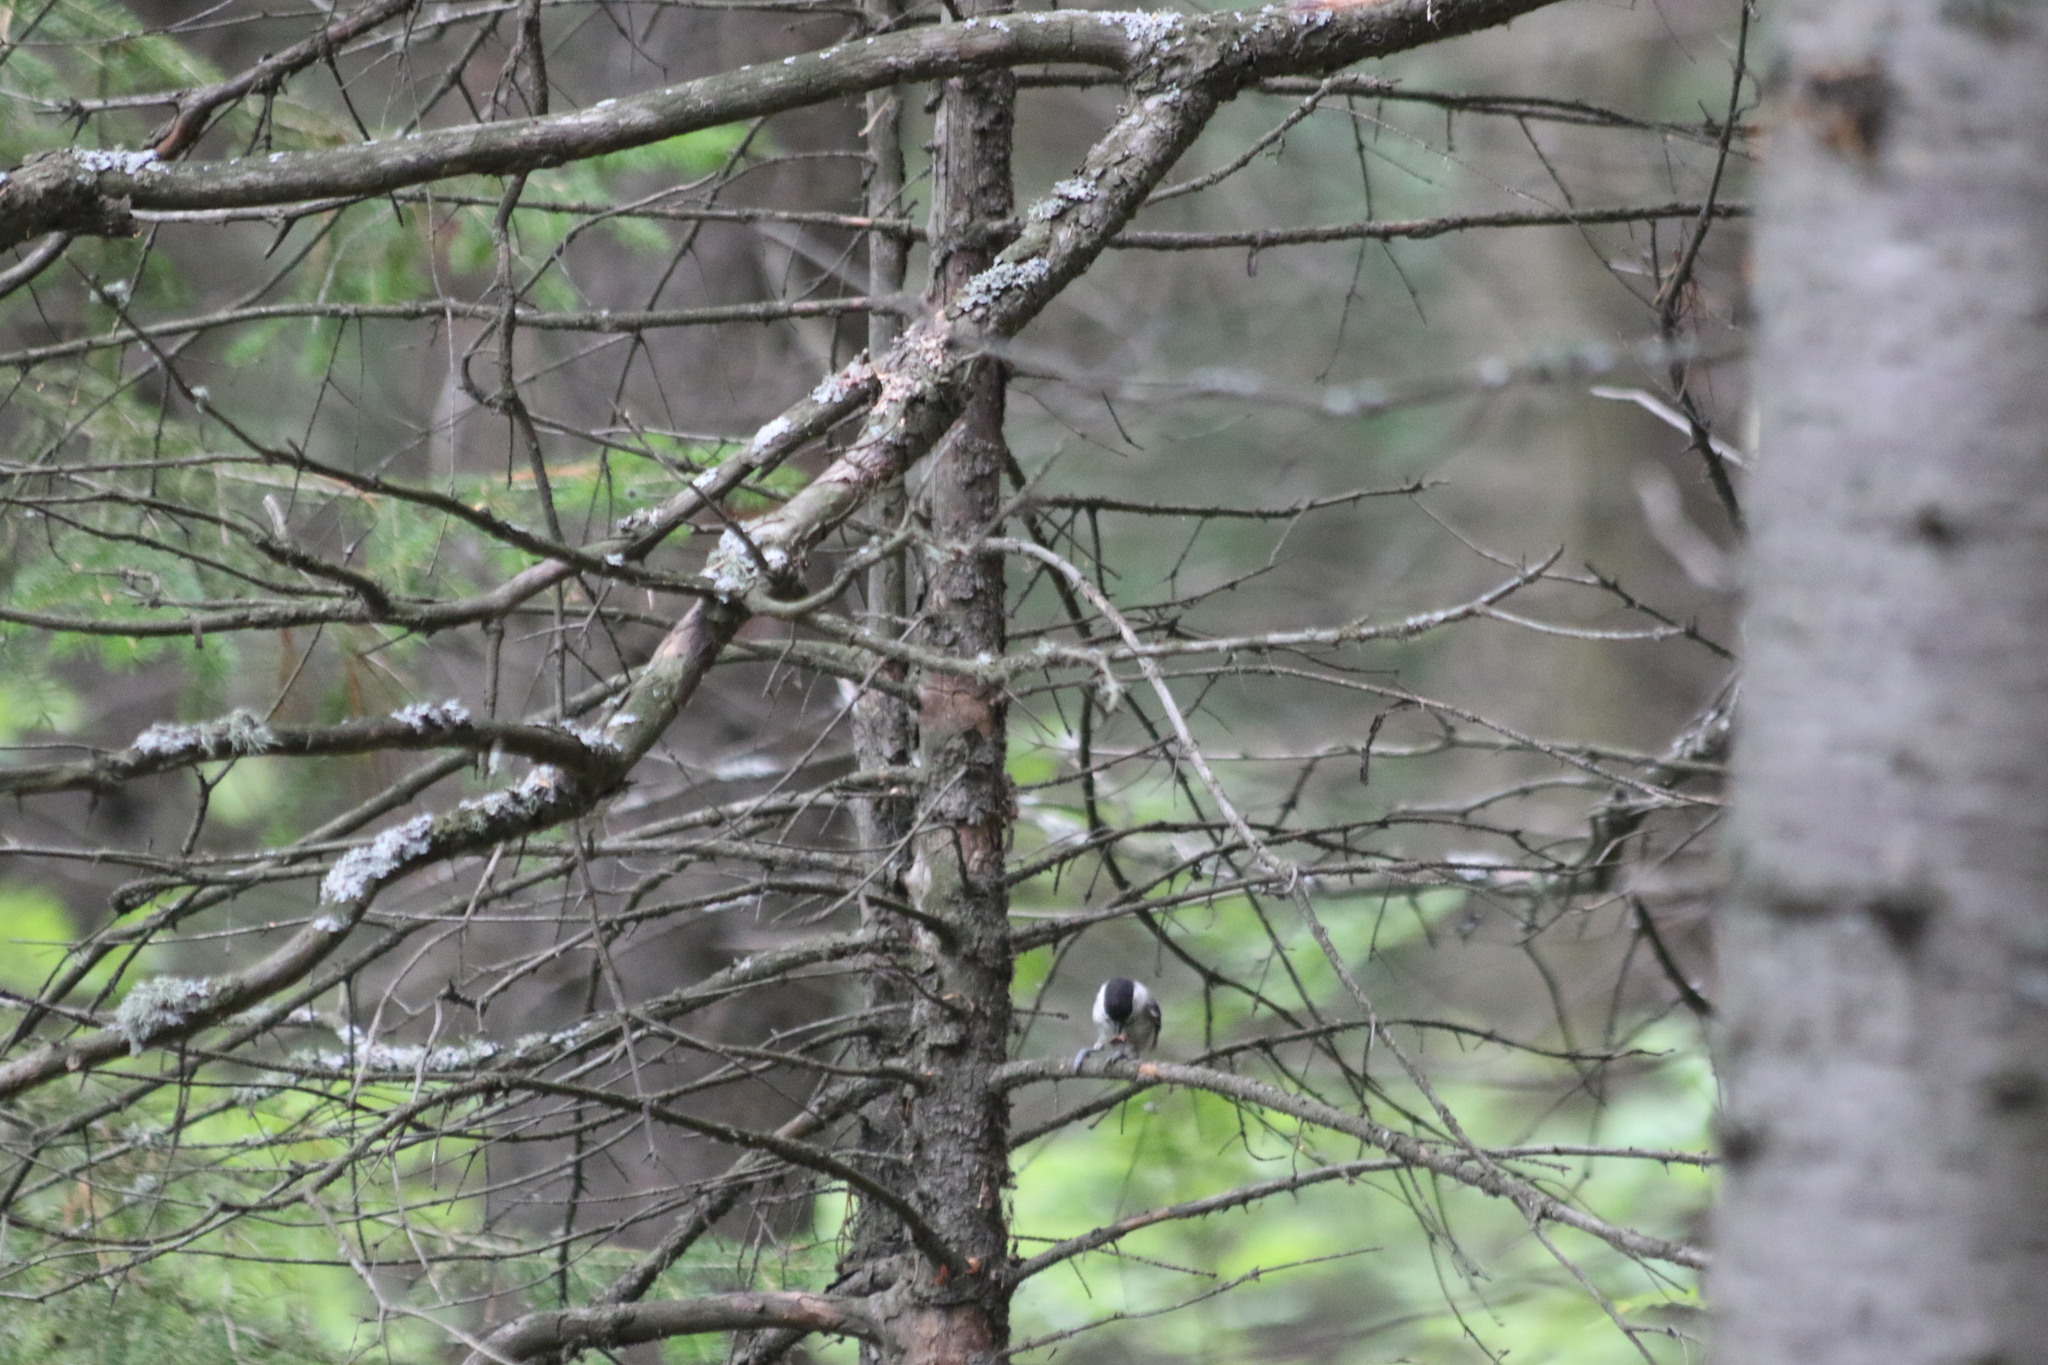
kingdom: Animalia
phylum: Chordata
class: Aves
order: Passeriformes
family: Paridae
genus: Poecile
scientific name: Poecile montanus
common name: Willow tit
